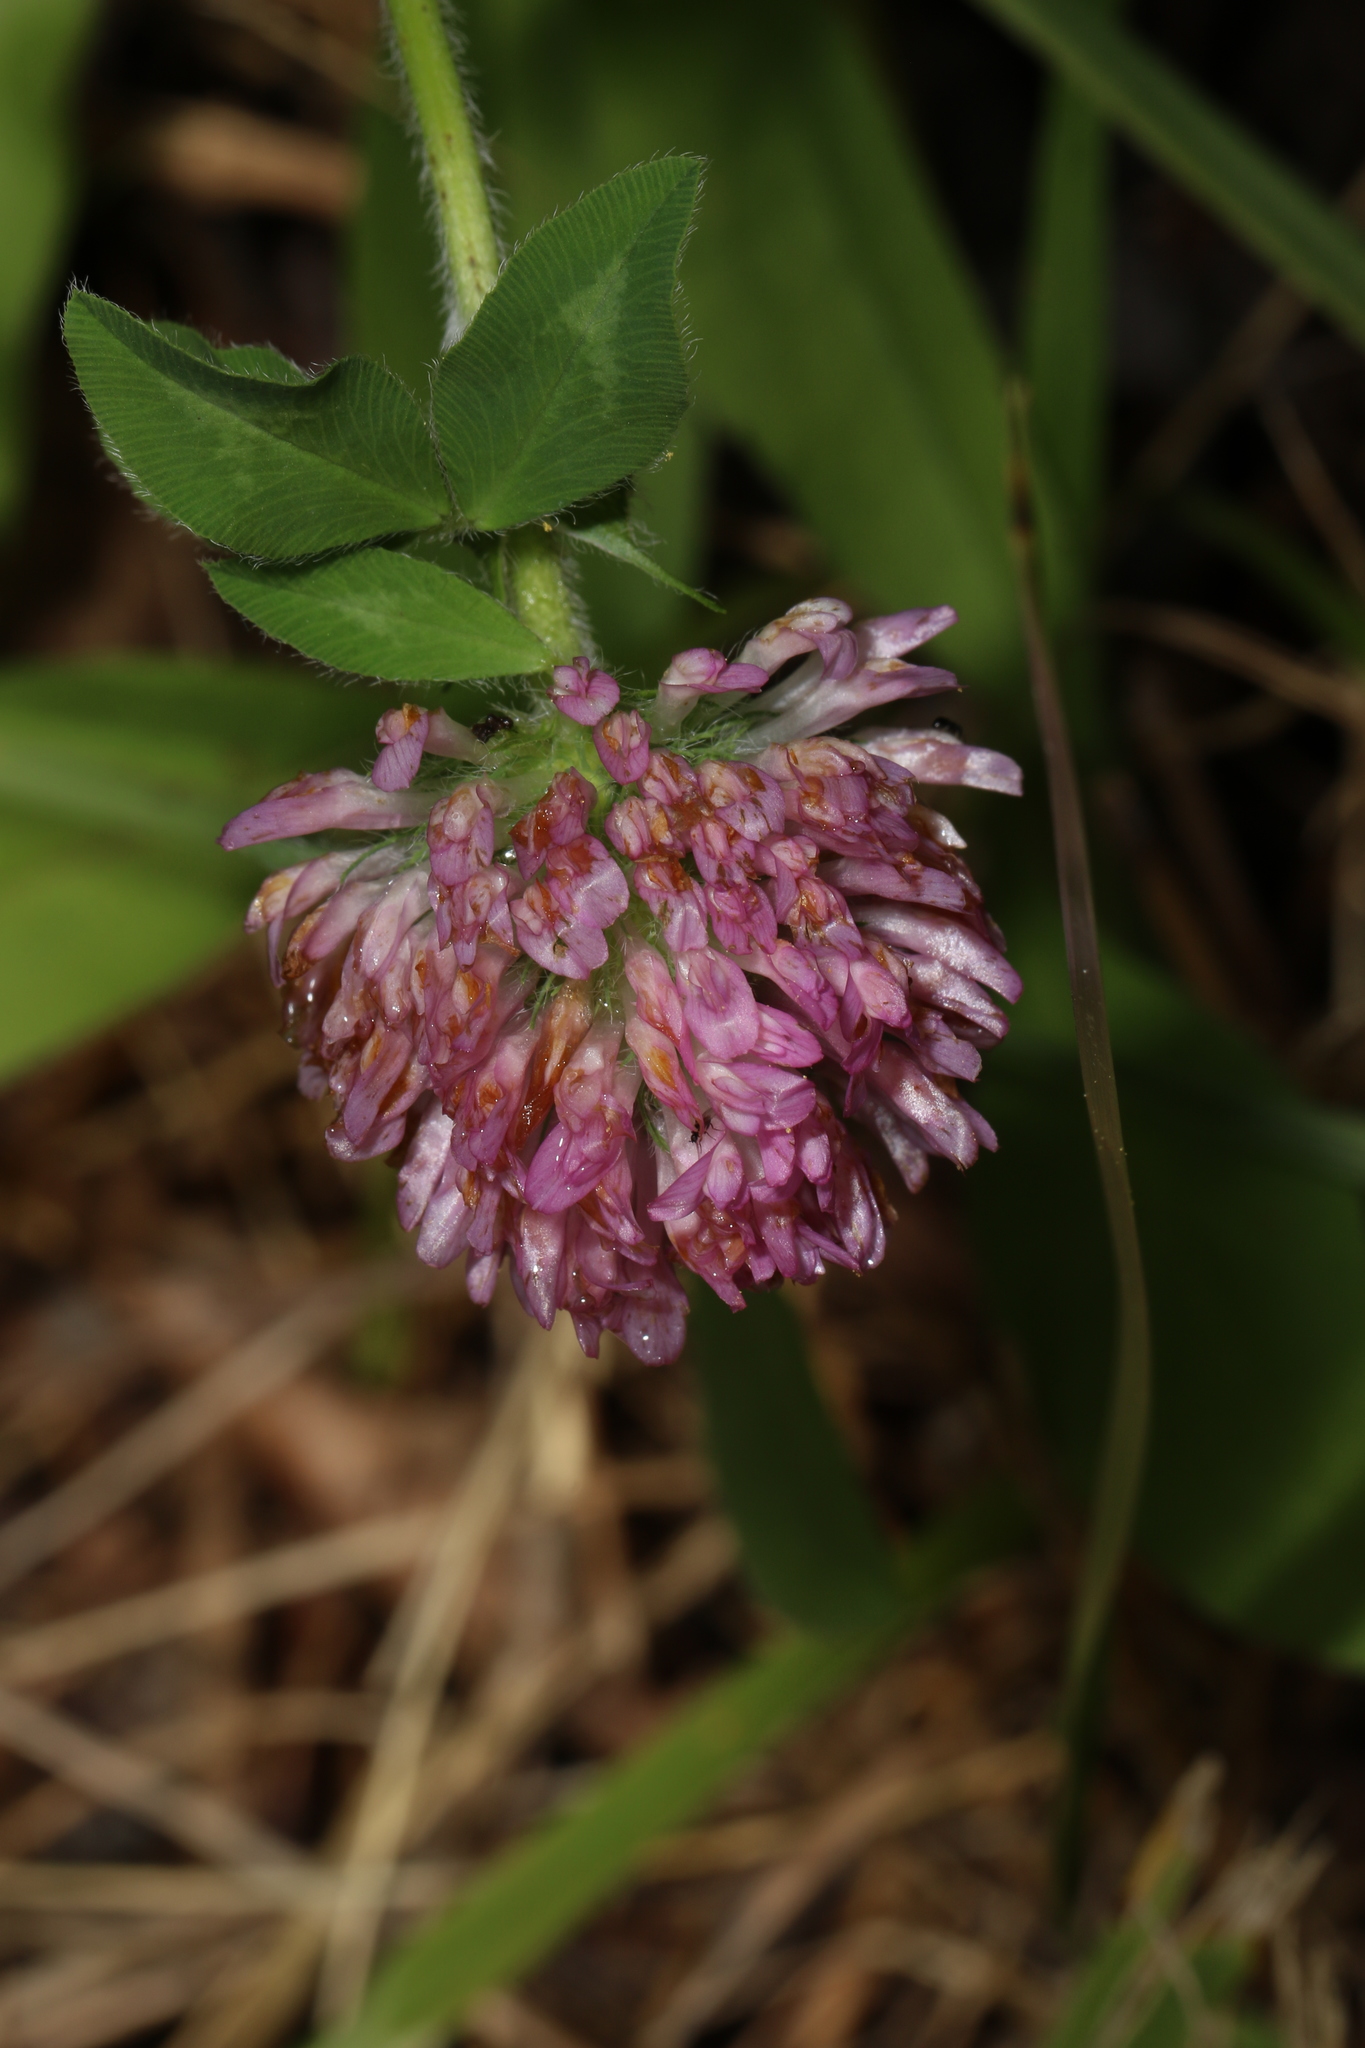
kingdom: Plantae
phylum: Tracheophyta
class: Magnoliopsida
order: Fabales
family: Fabaceae
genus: Trifolium
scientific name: Trifolium pratense
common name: Red clover
